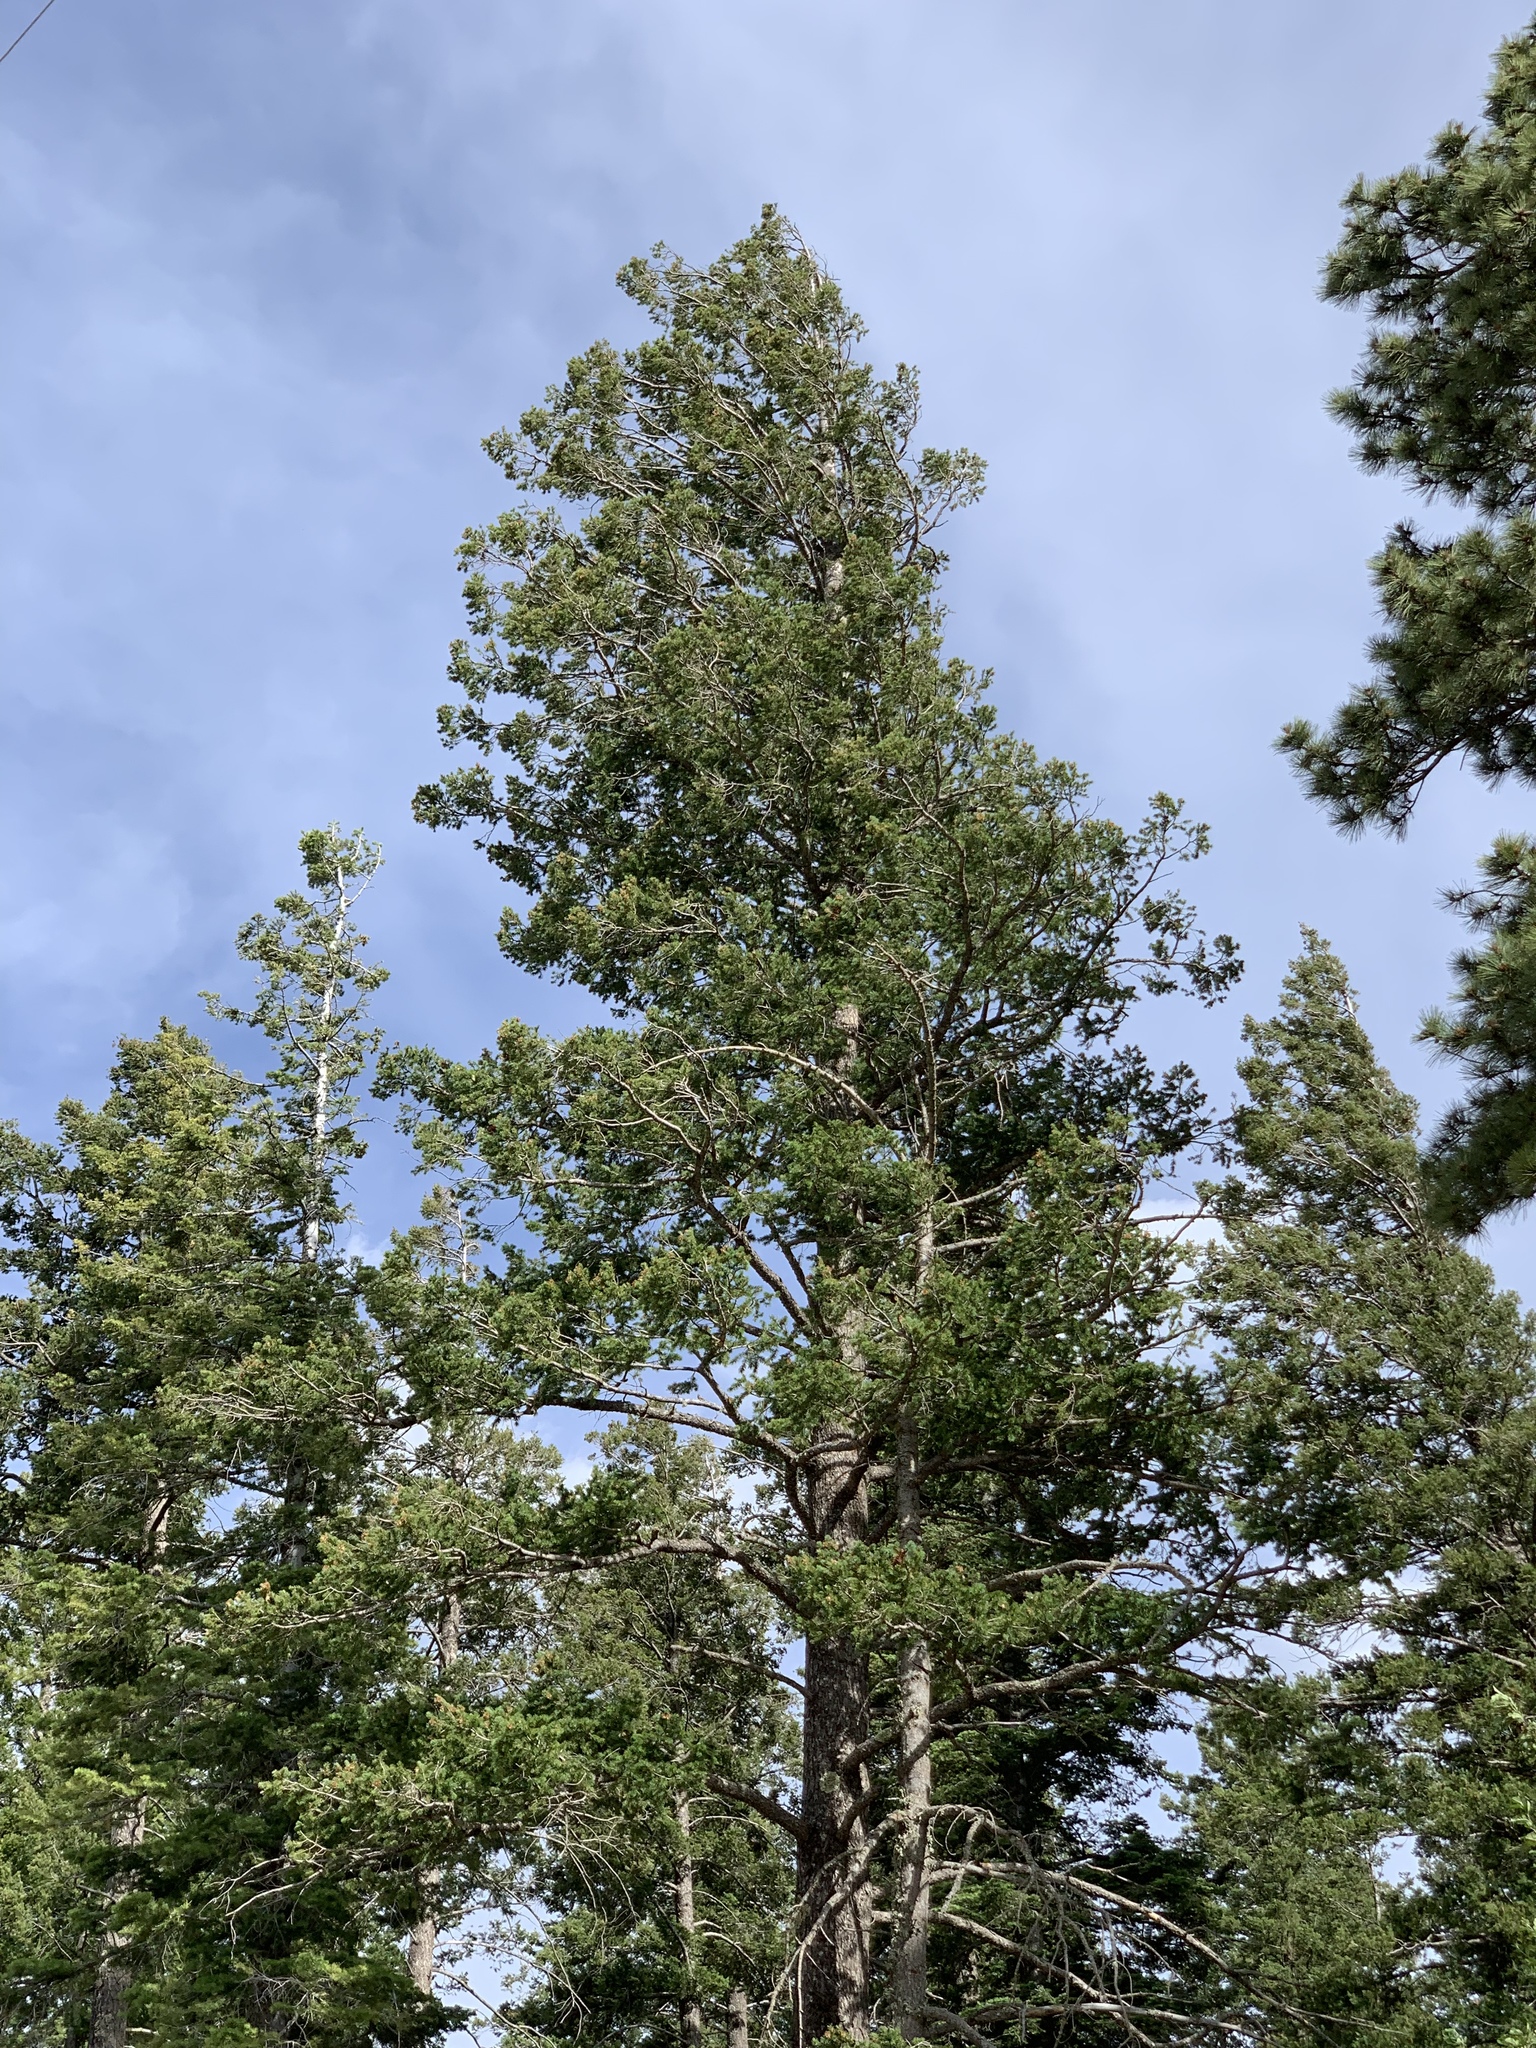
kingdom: Plantae
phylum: Tracheophyta
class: Pinopsida
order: Pinales
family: Pinaceae
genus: Pseudotsuga
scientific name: Pseudotsuga menziesii
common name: Douglas fir
